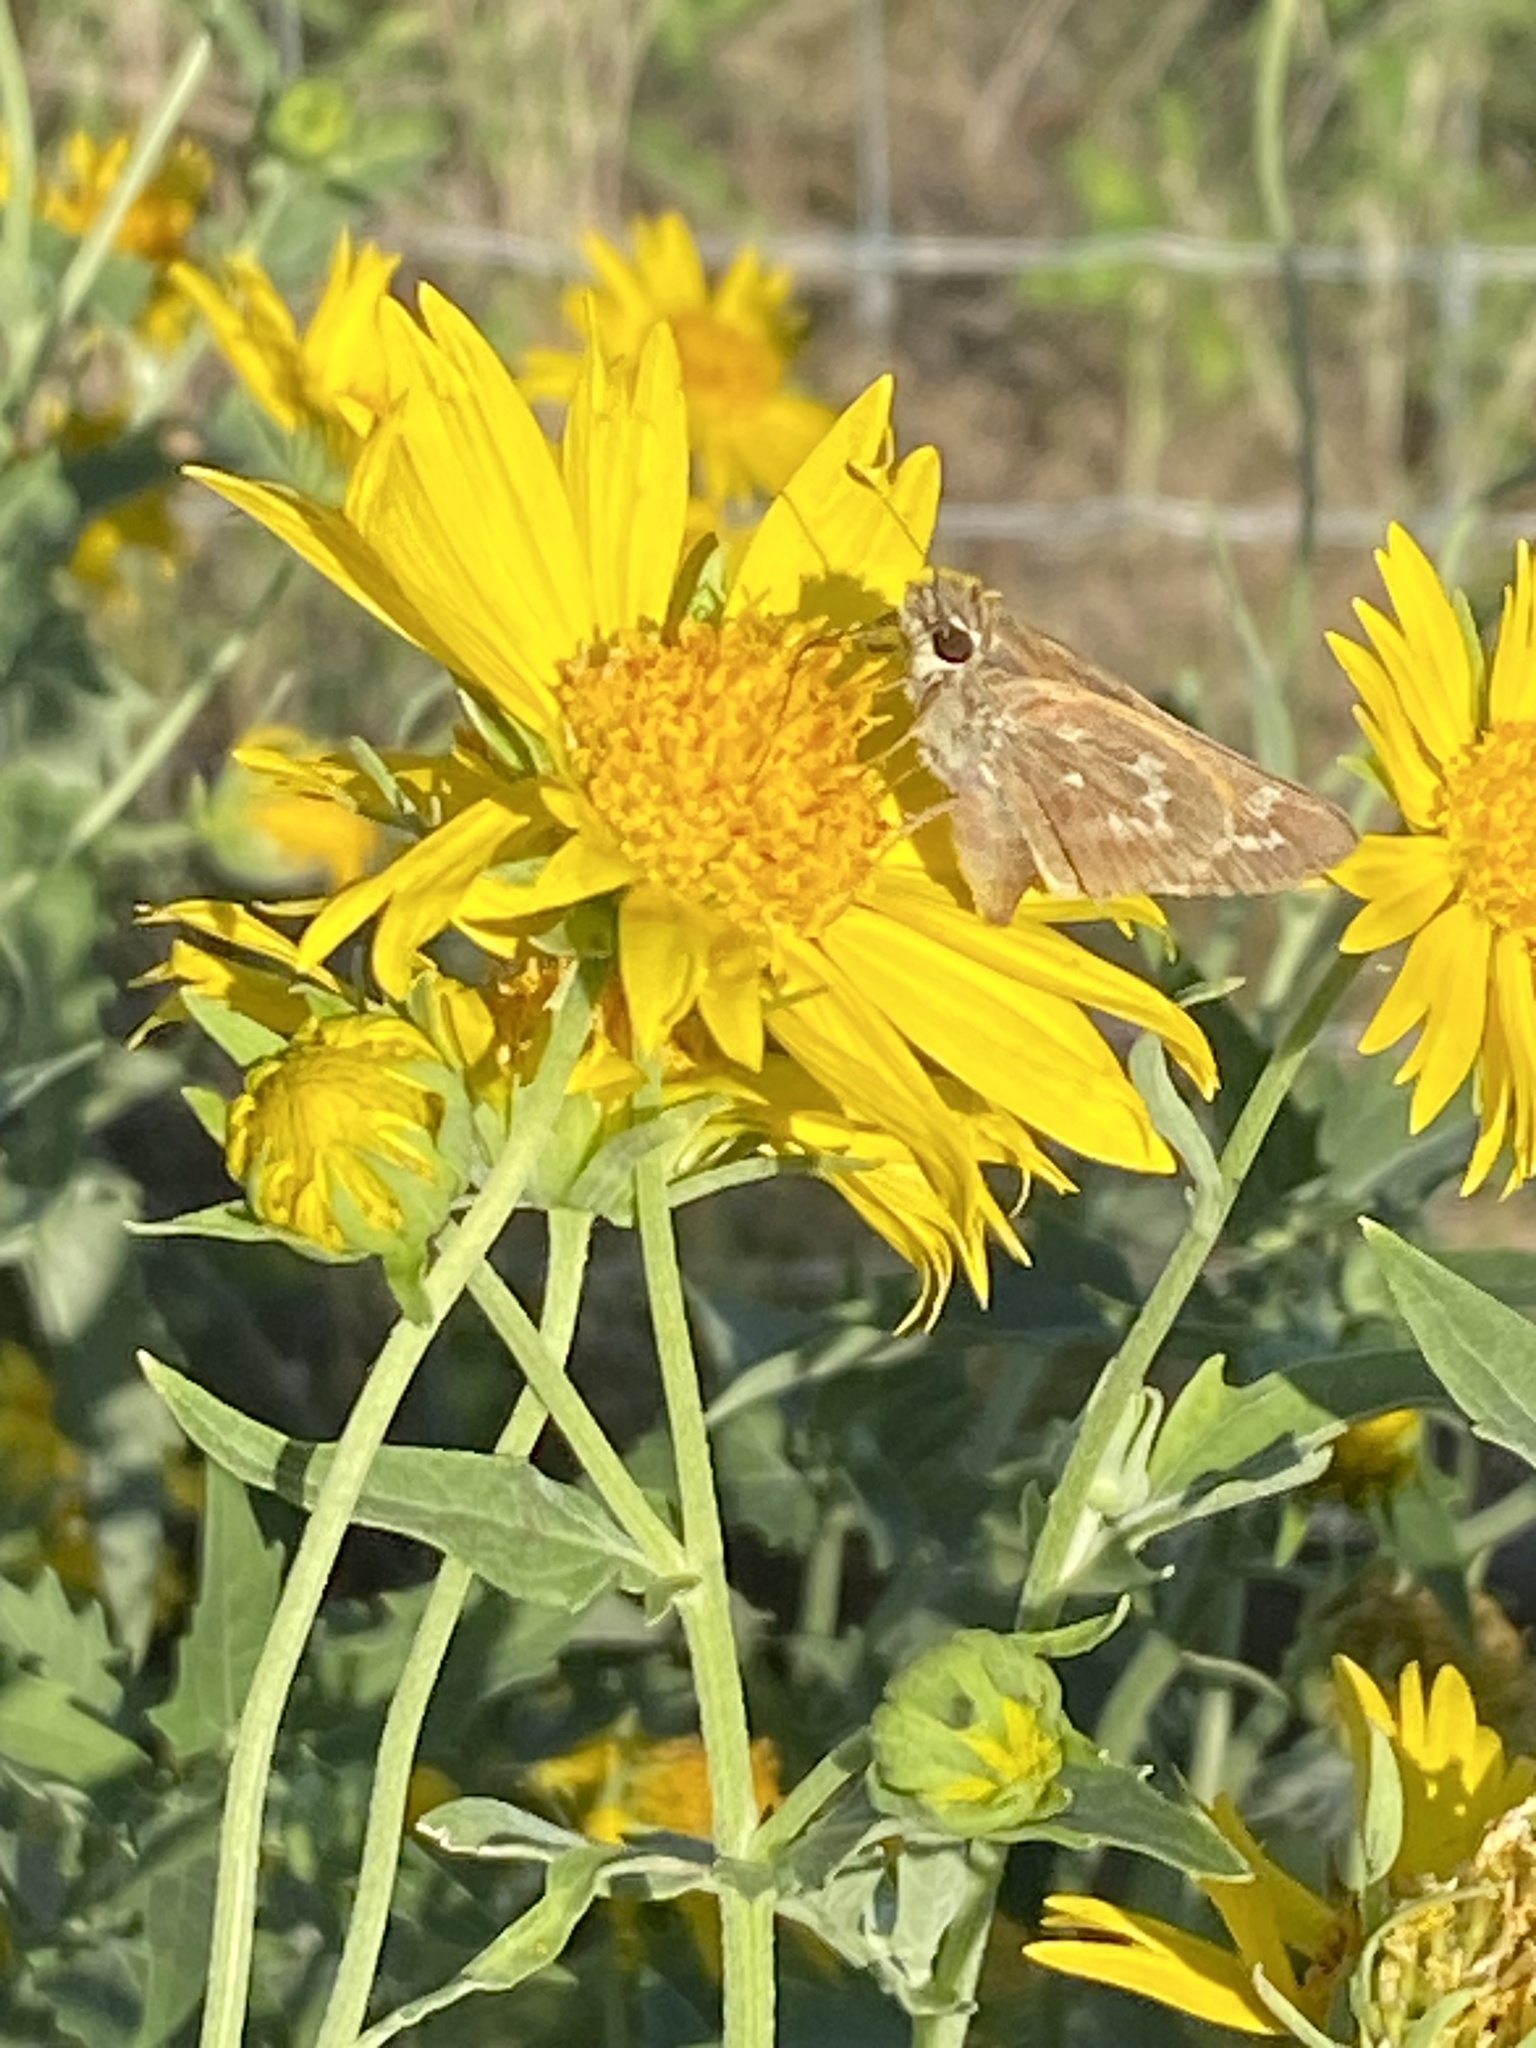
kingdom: Animalia
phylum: Arthropoda
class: Insecta
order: Lepidoptera
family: Hesperiidae
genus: Atalopedes
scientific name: Atalopedes
